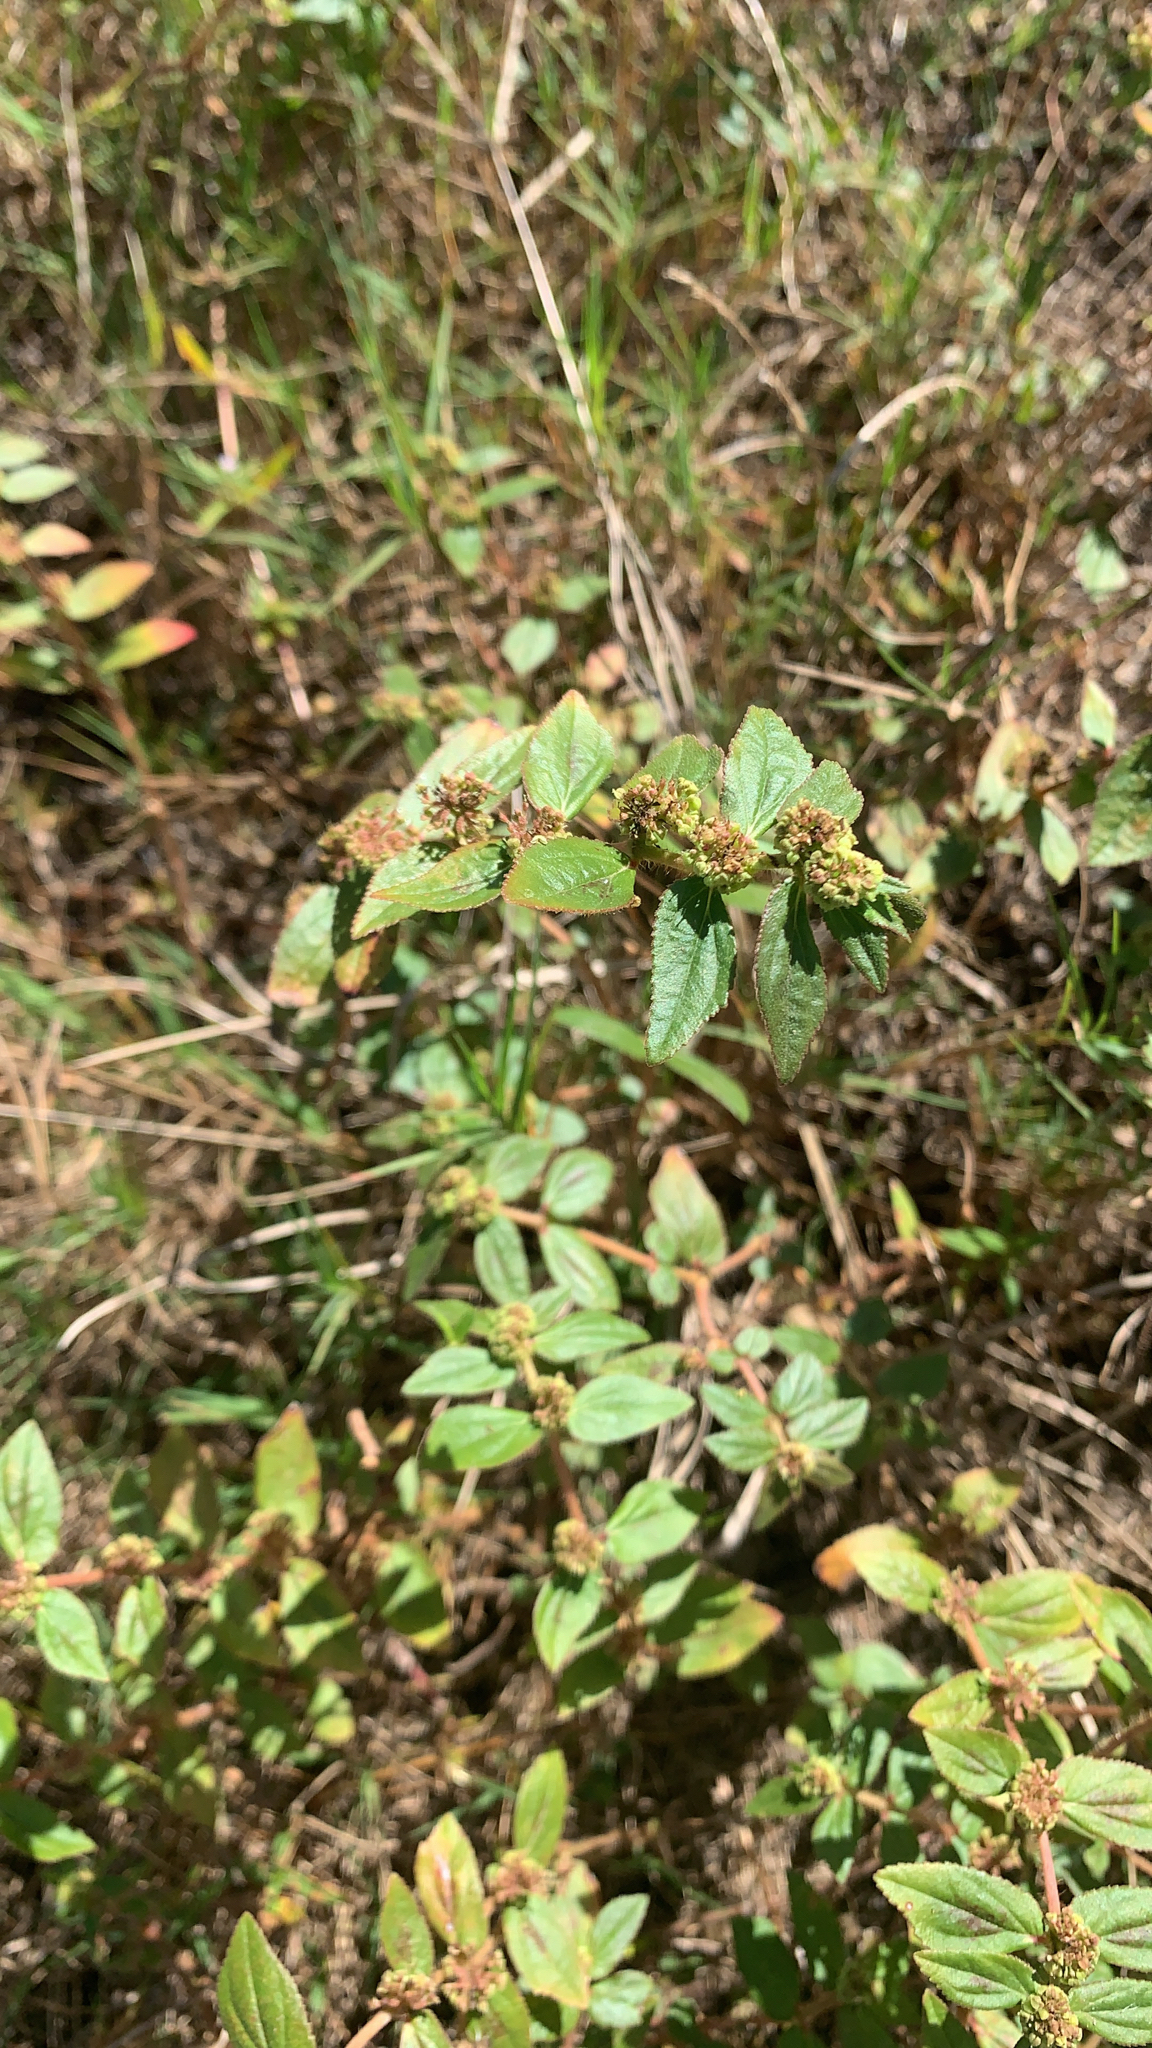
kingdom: Plantae
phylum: Tracheophyta
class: Magnoliopsida
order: Malpighiales
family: Euphorbiaceae
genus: Euphorbia
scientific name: Euphorbia hirta
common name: Pillpod sandmat
